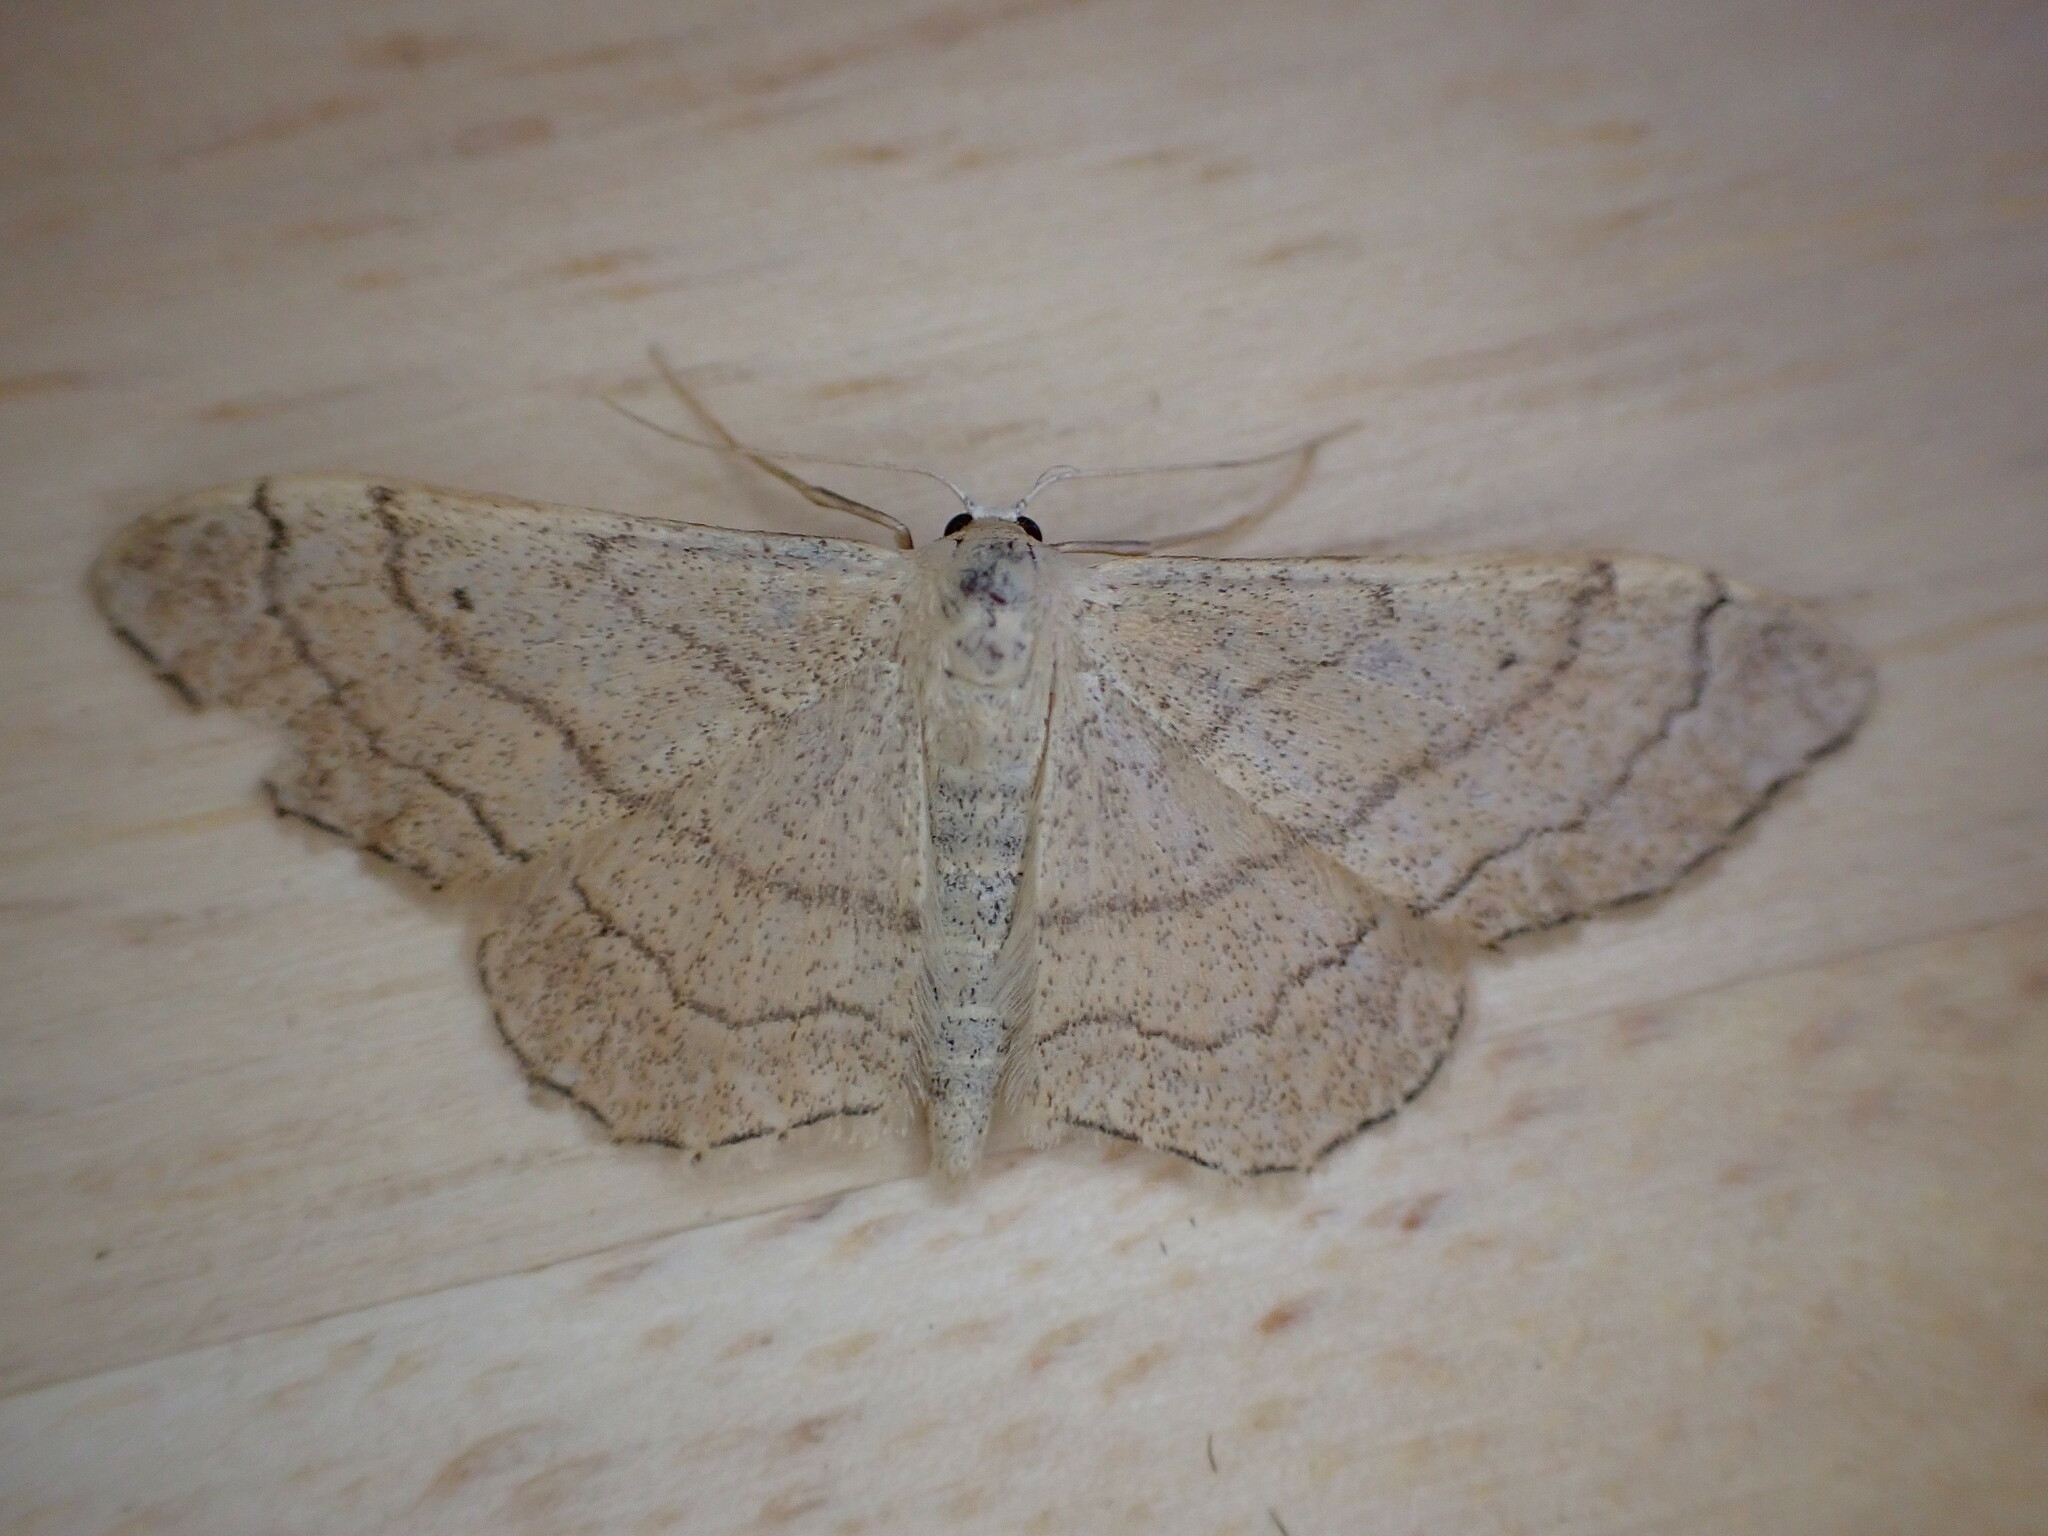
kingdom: Animalia
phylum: Arthropoda
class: Insecta
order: Lepidoptera
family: Geometridae
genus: Idaea
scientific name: Idaea aversata
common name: Riband wave
